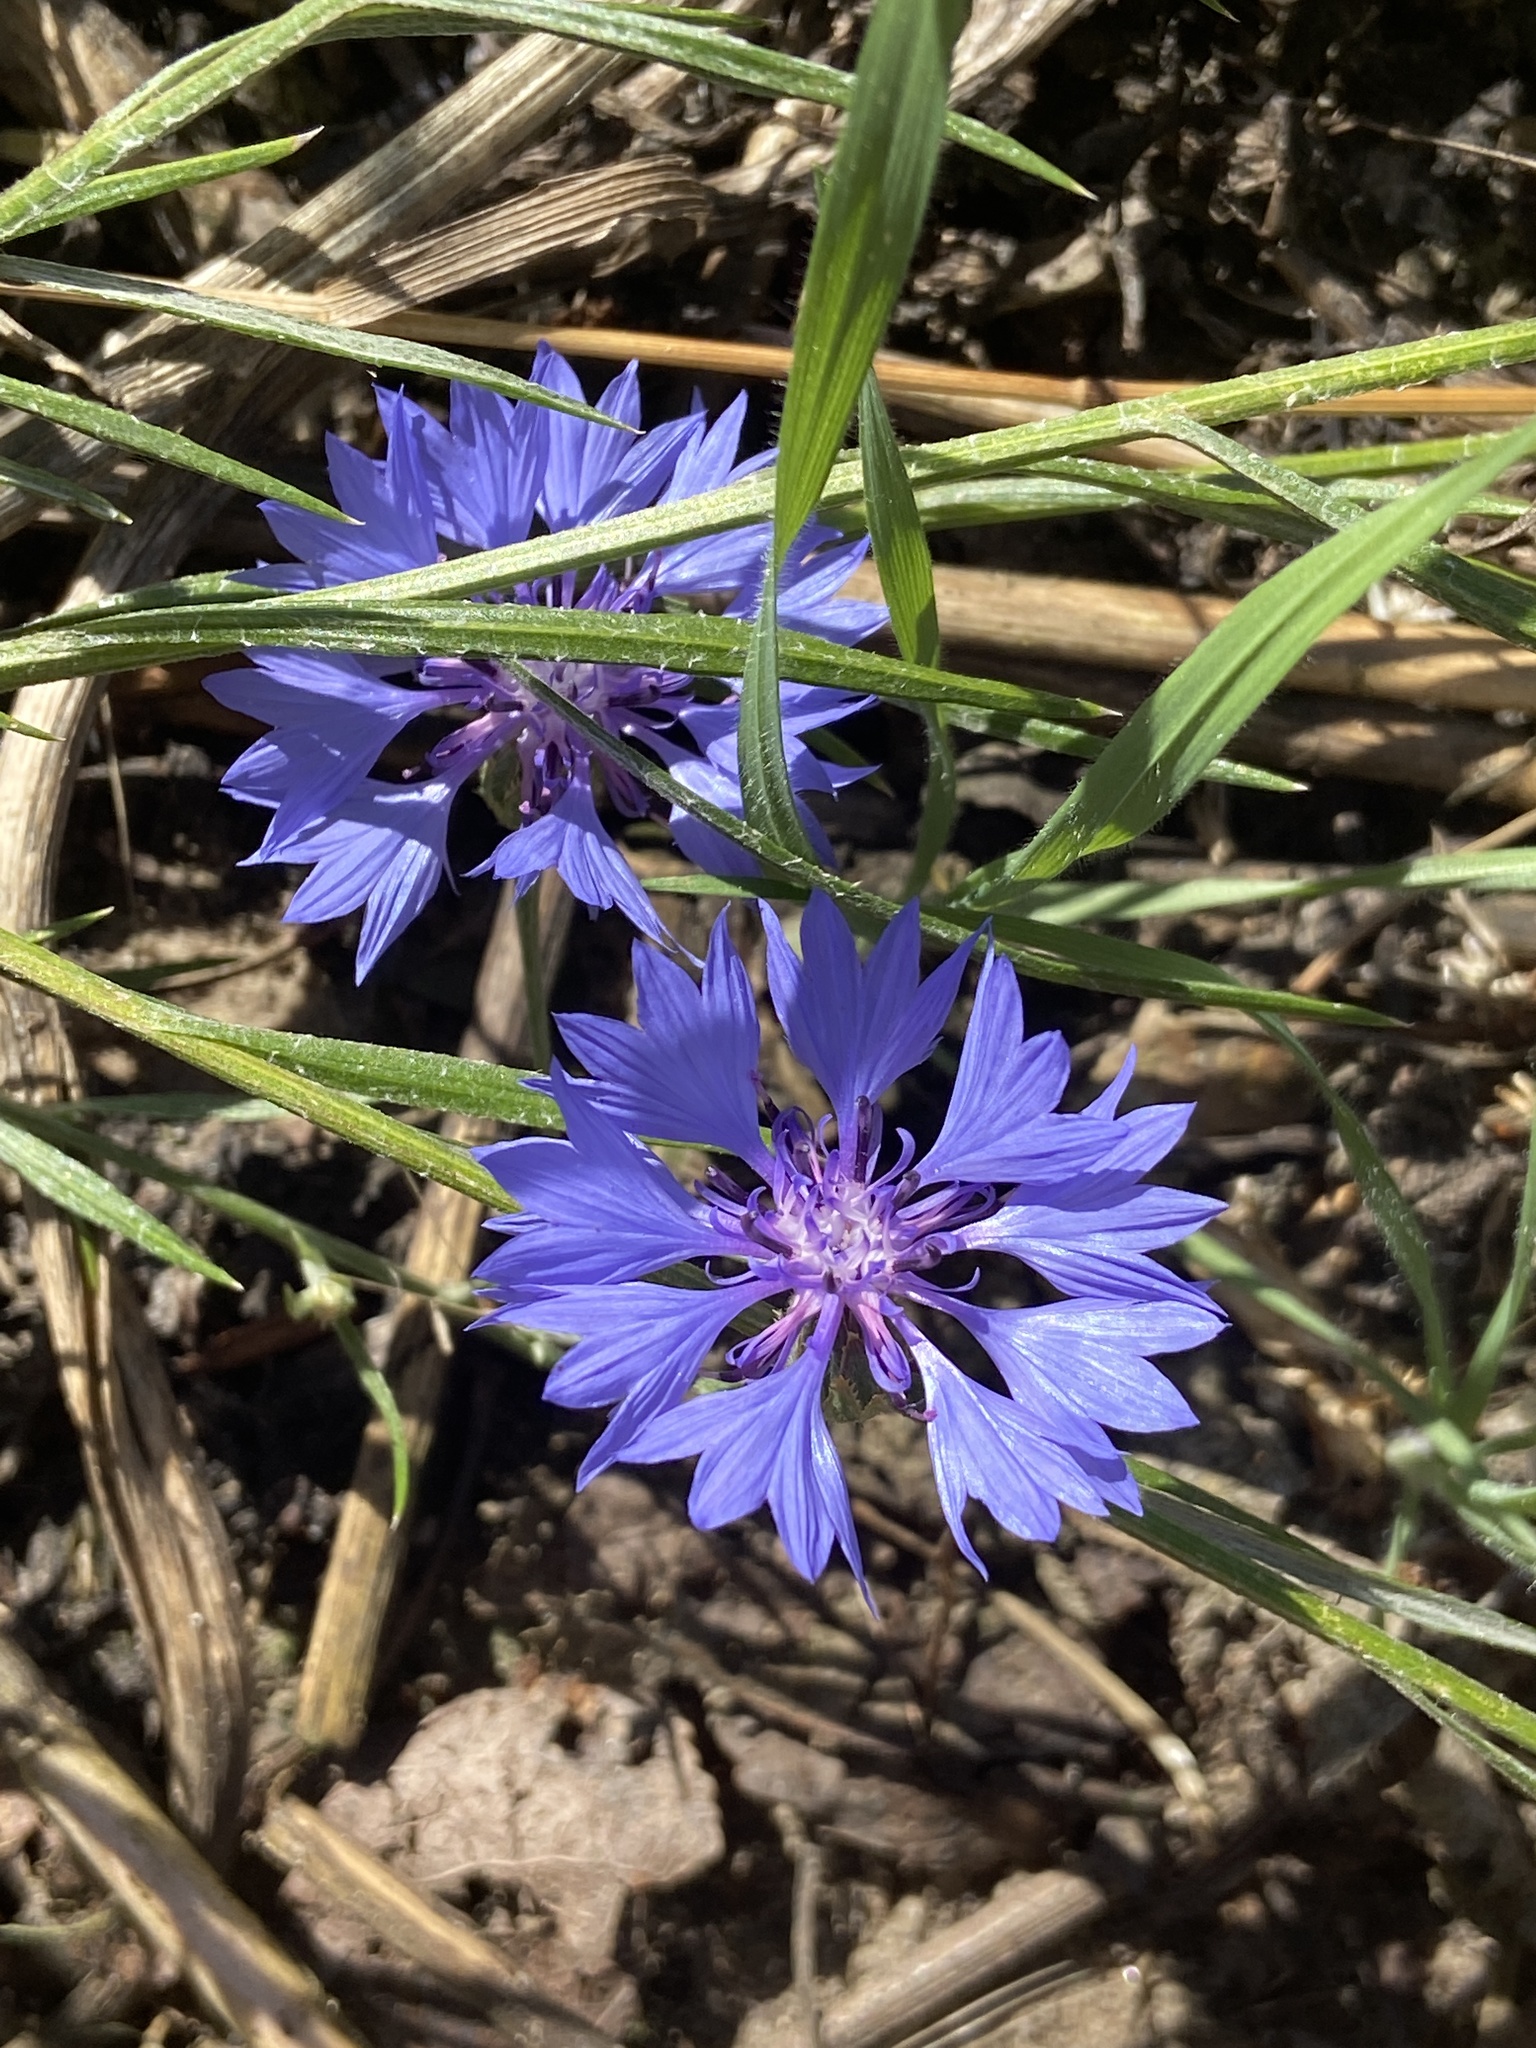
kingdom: Plantae
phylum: Tracheophyta
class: Magnoliopsida
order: Asterales
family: Asteraceae
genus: Centaurea
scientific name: Centaurea cyanus
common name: Cornflower
